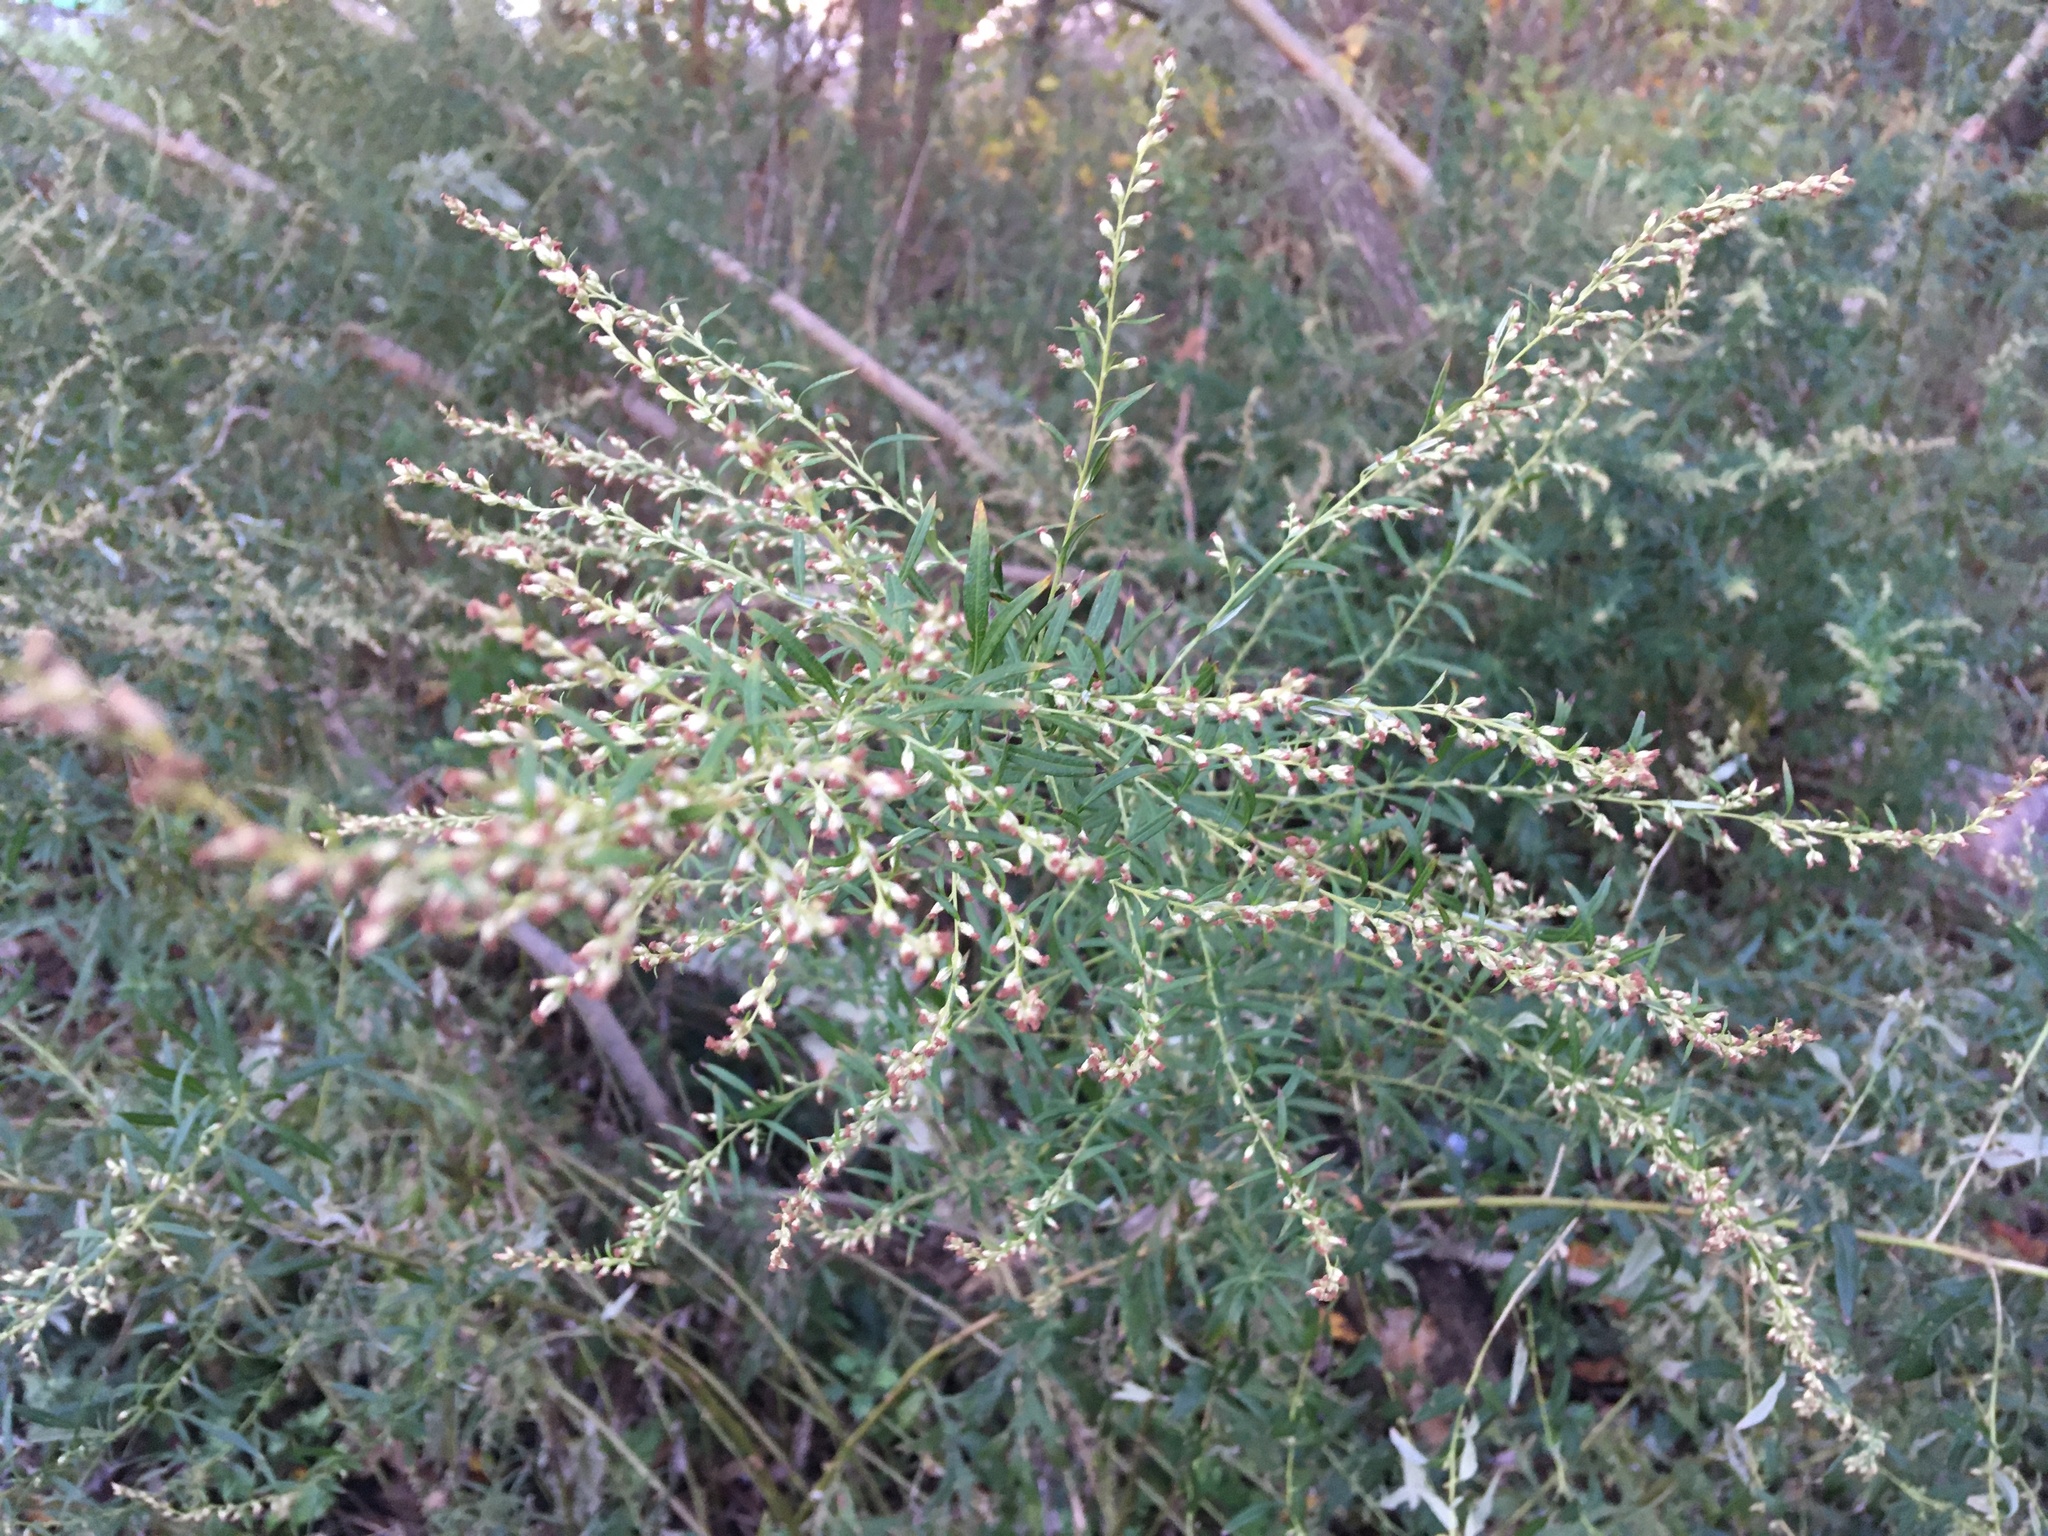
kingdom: Plantae
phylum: Tracheophyta
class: Magnoliopsida
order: Asterales
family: Asteraceae
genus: Artemisia
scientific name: Artemisia vulgaris
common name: Mugwort
